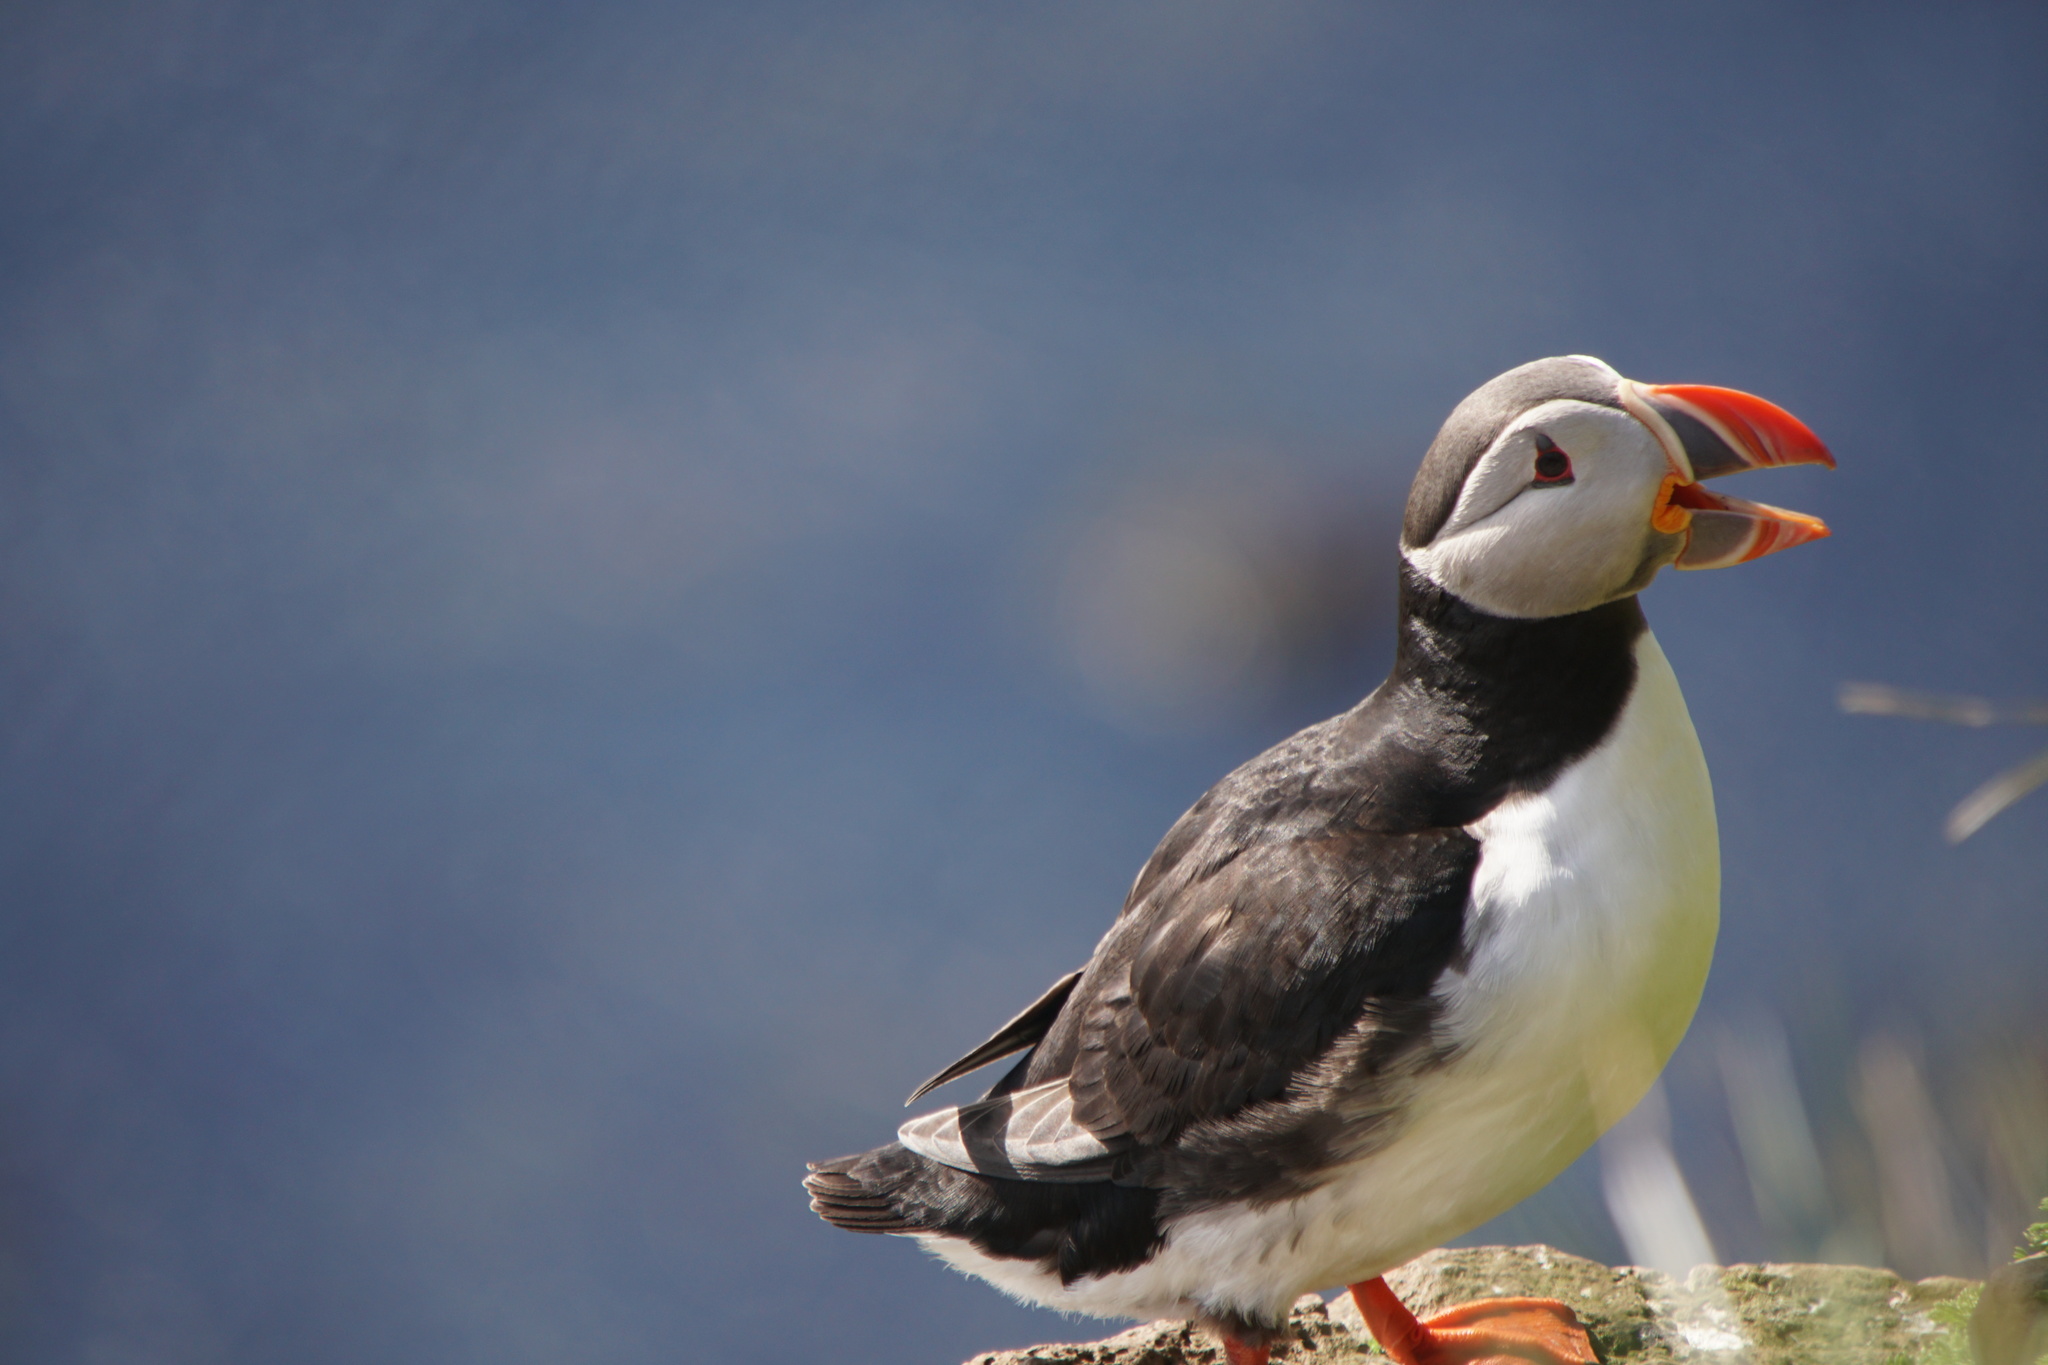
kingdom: Animalia
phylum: Chordata
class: Aves
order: Charadriiformes
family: Alcidae
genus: Fratercula
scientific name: Fratercula arctica
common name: Atlantic puffin
